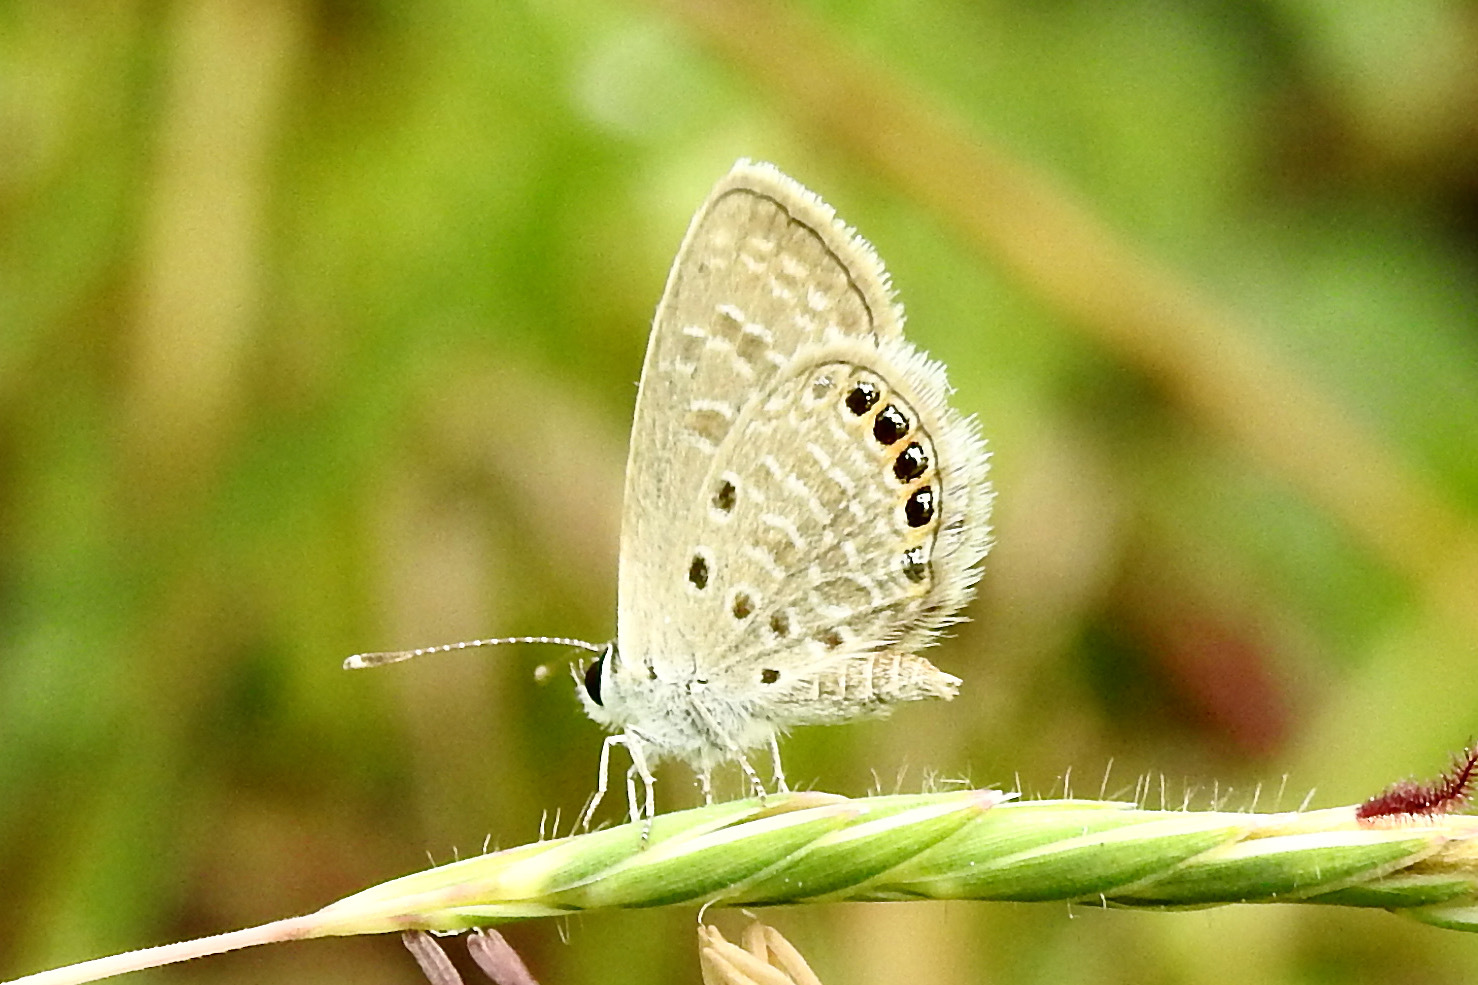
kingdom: Animalia
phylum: Arthropoda
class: Insecta
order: Lepidoptera
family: Lycaenidae
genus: Freyeria
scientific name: Freyeria putli
